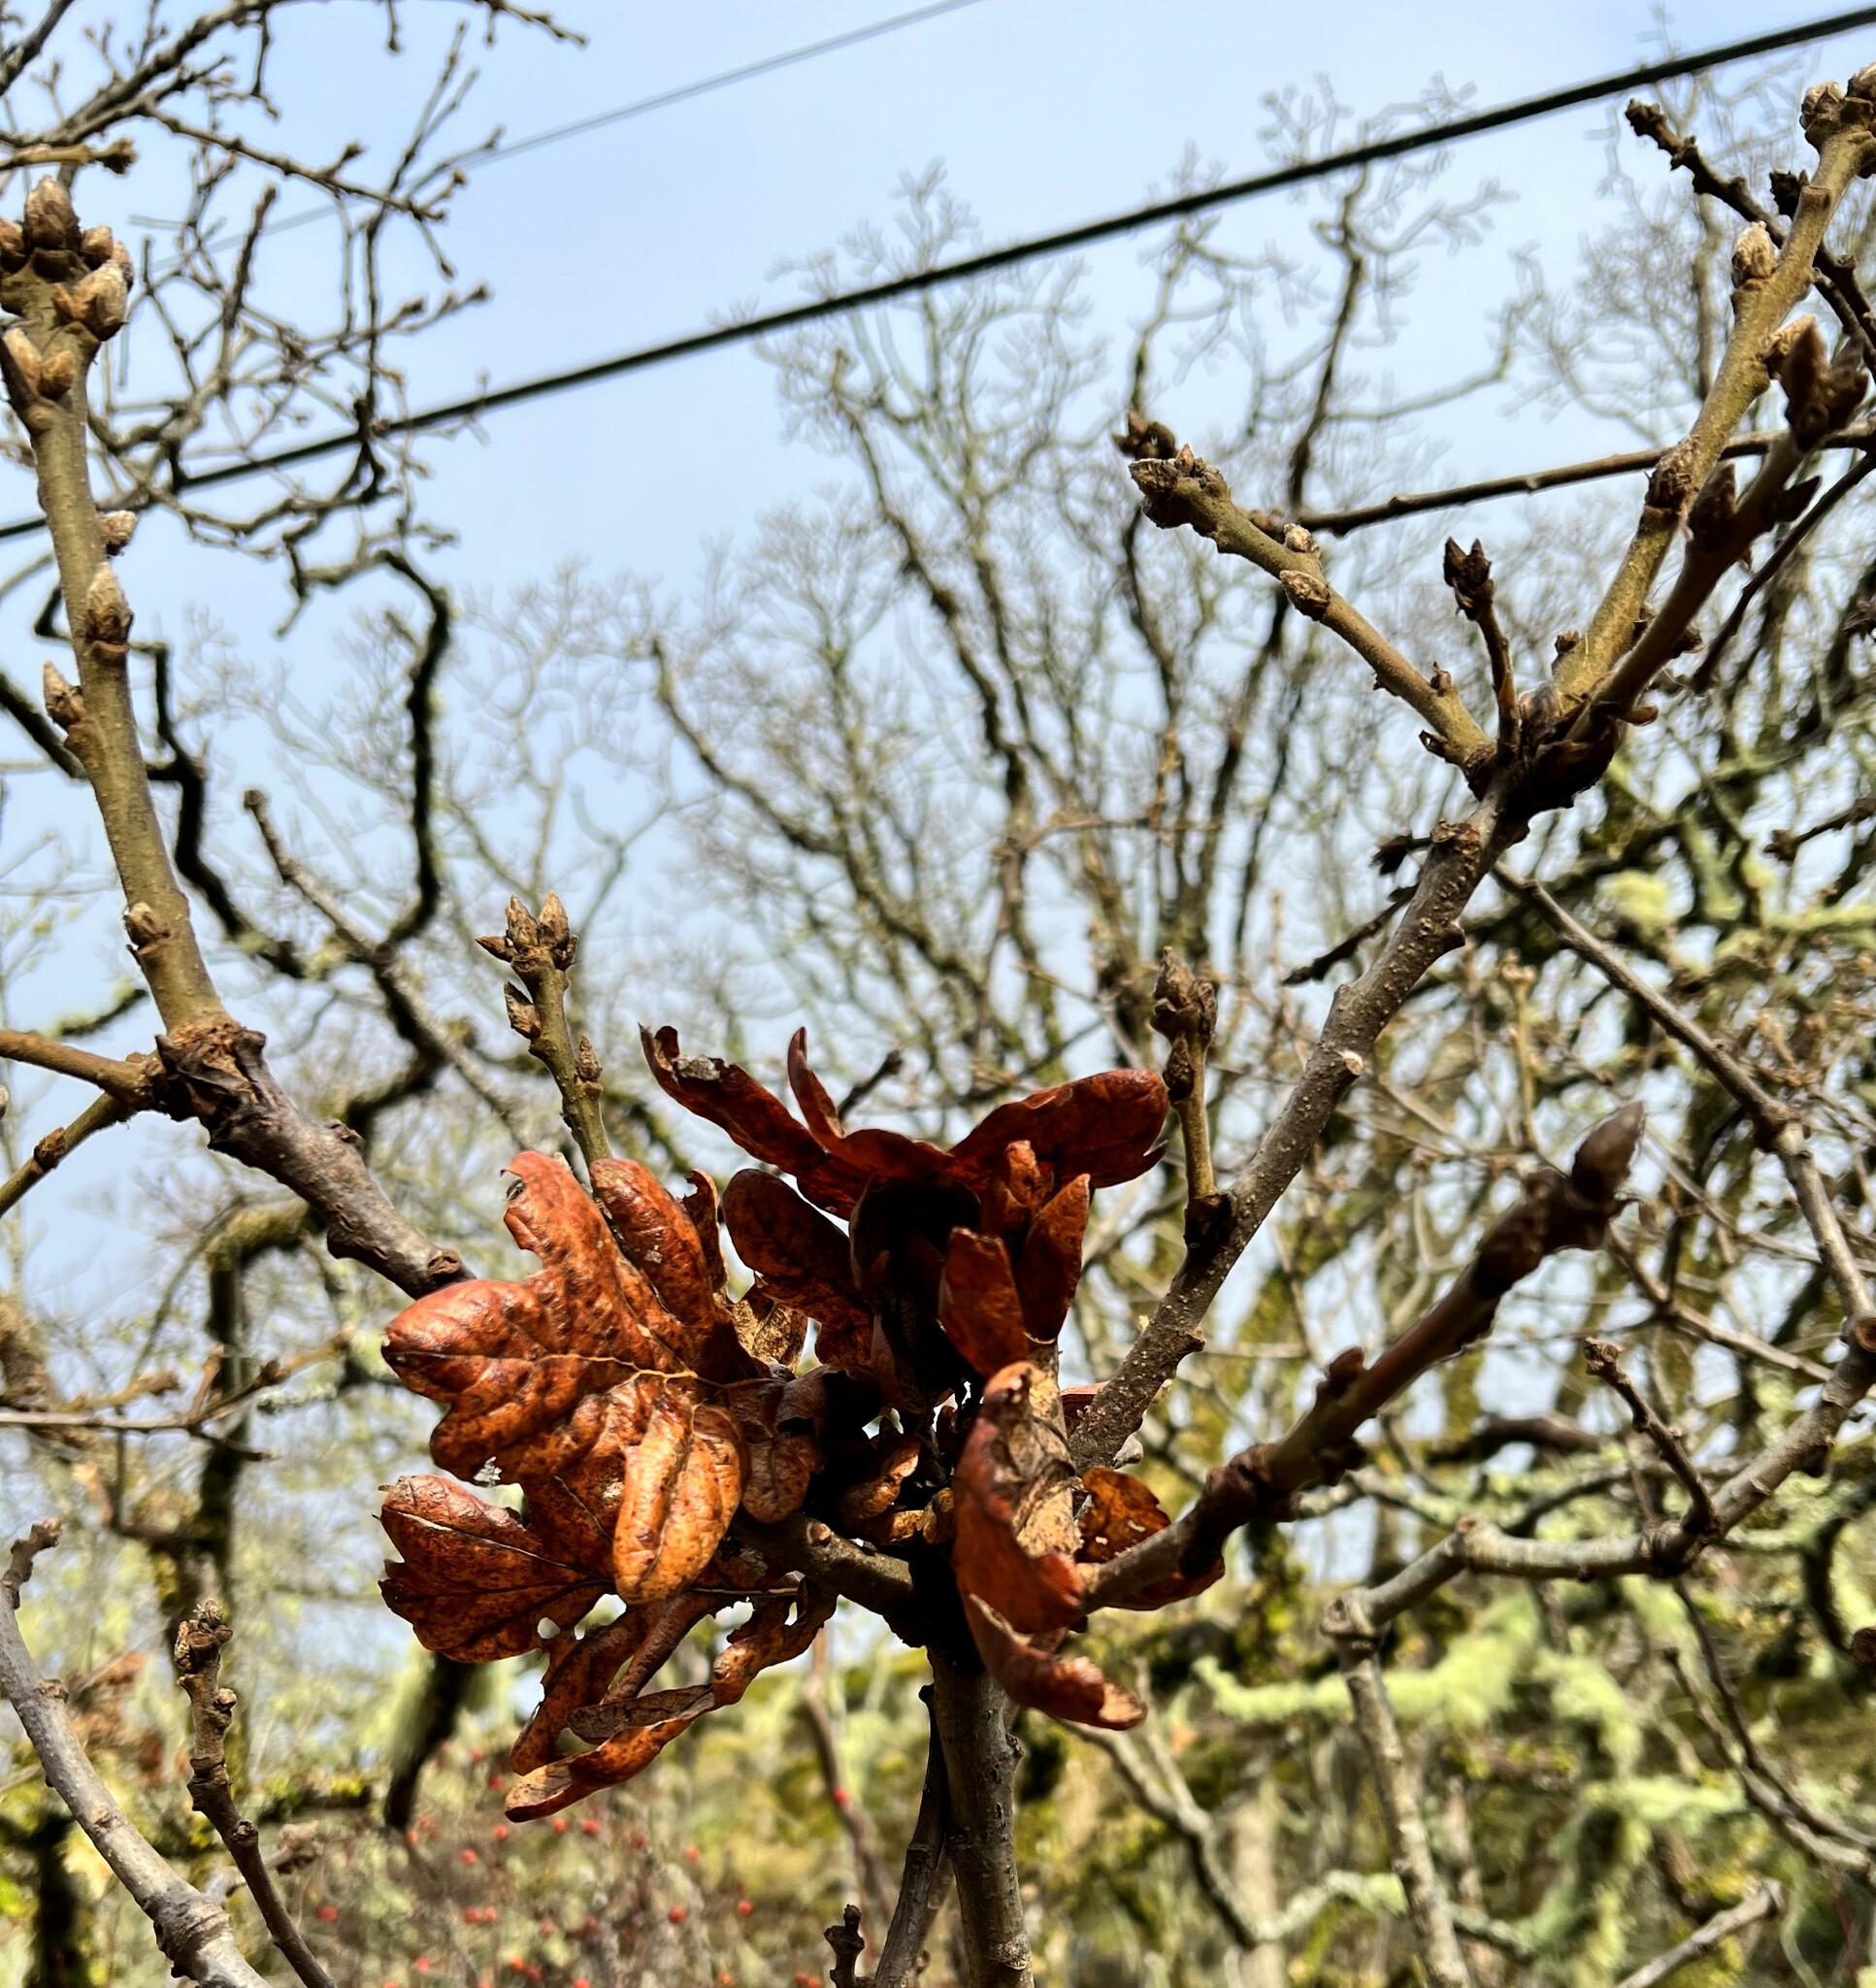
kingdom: Plantae
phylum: Tracheophyta
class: Magnoliopsida
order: Fagales
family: Fagaceae
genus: Quercus
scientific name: Quercus garryana
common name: Garry oak
